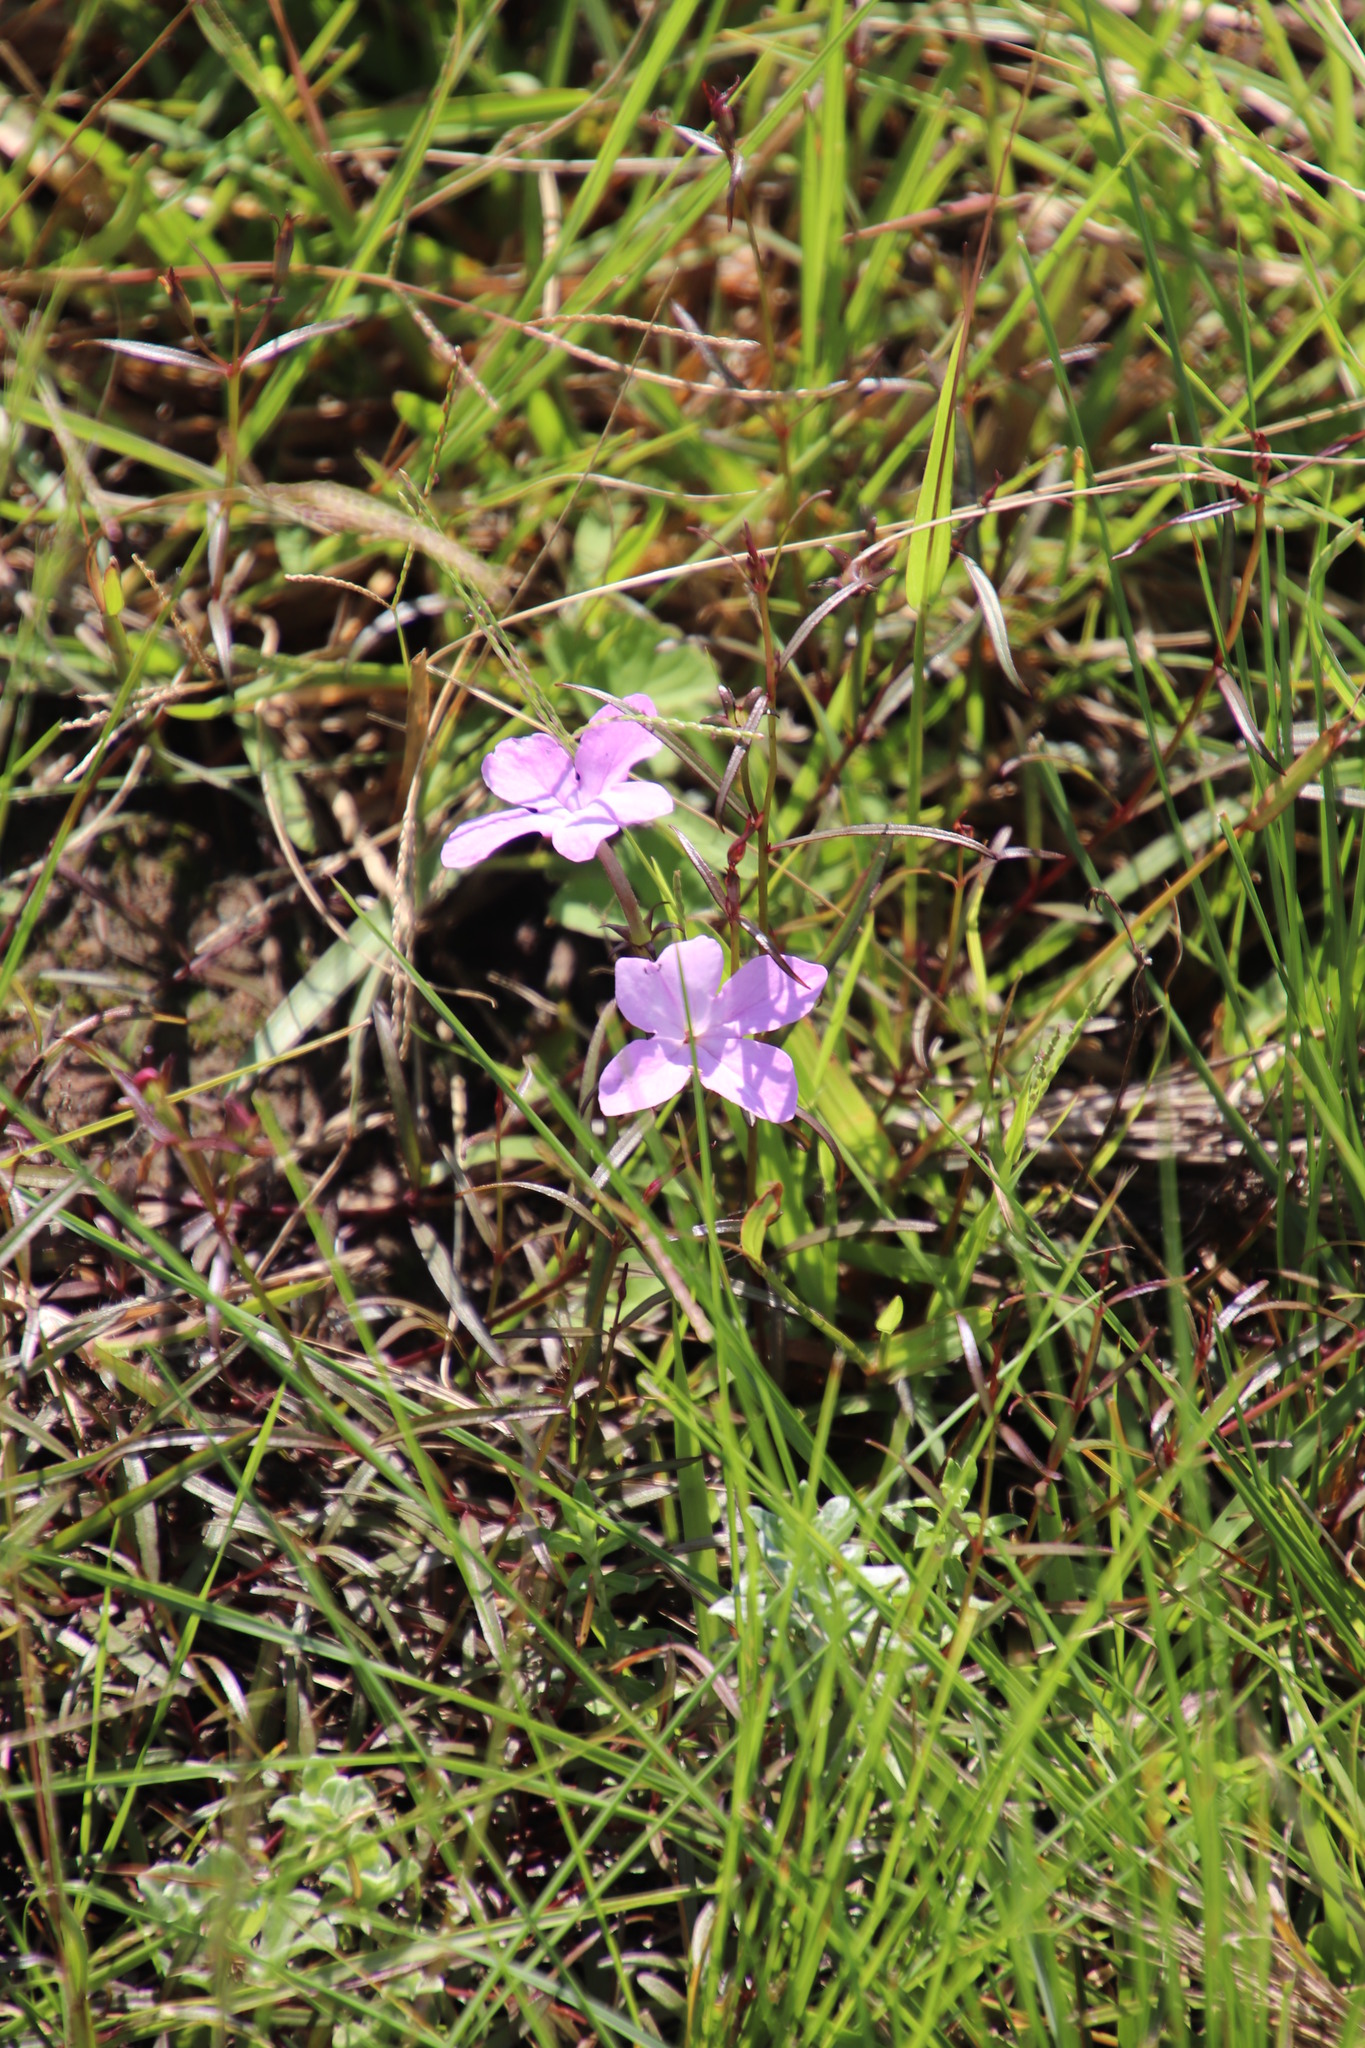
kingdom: Plantae
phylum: Tracheophyta
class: Magnoliopsida
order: Lamiales
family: Orobanchaceae
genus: Cycnium
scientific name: Cycnium tubulosum
